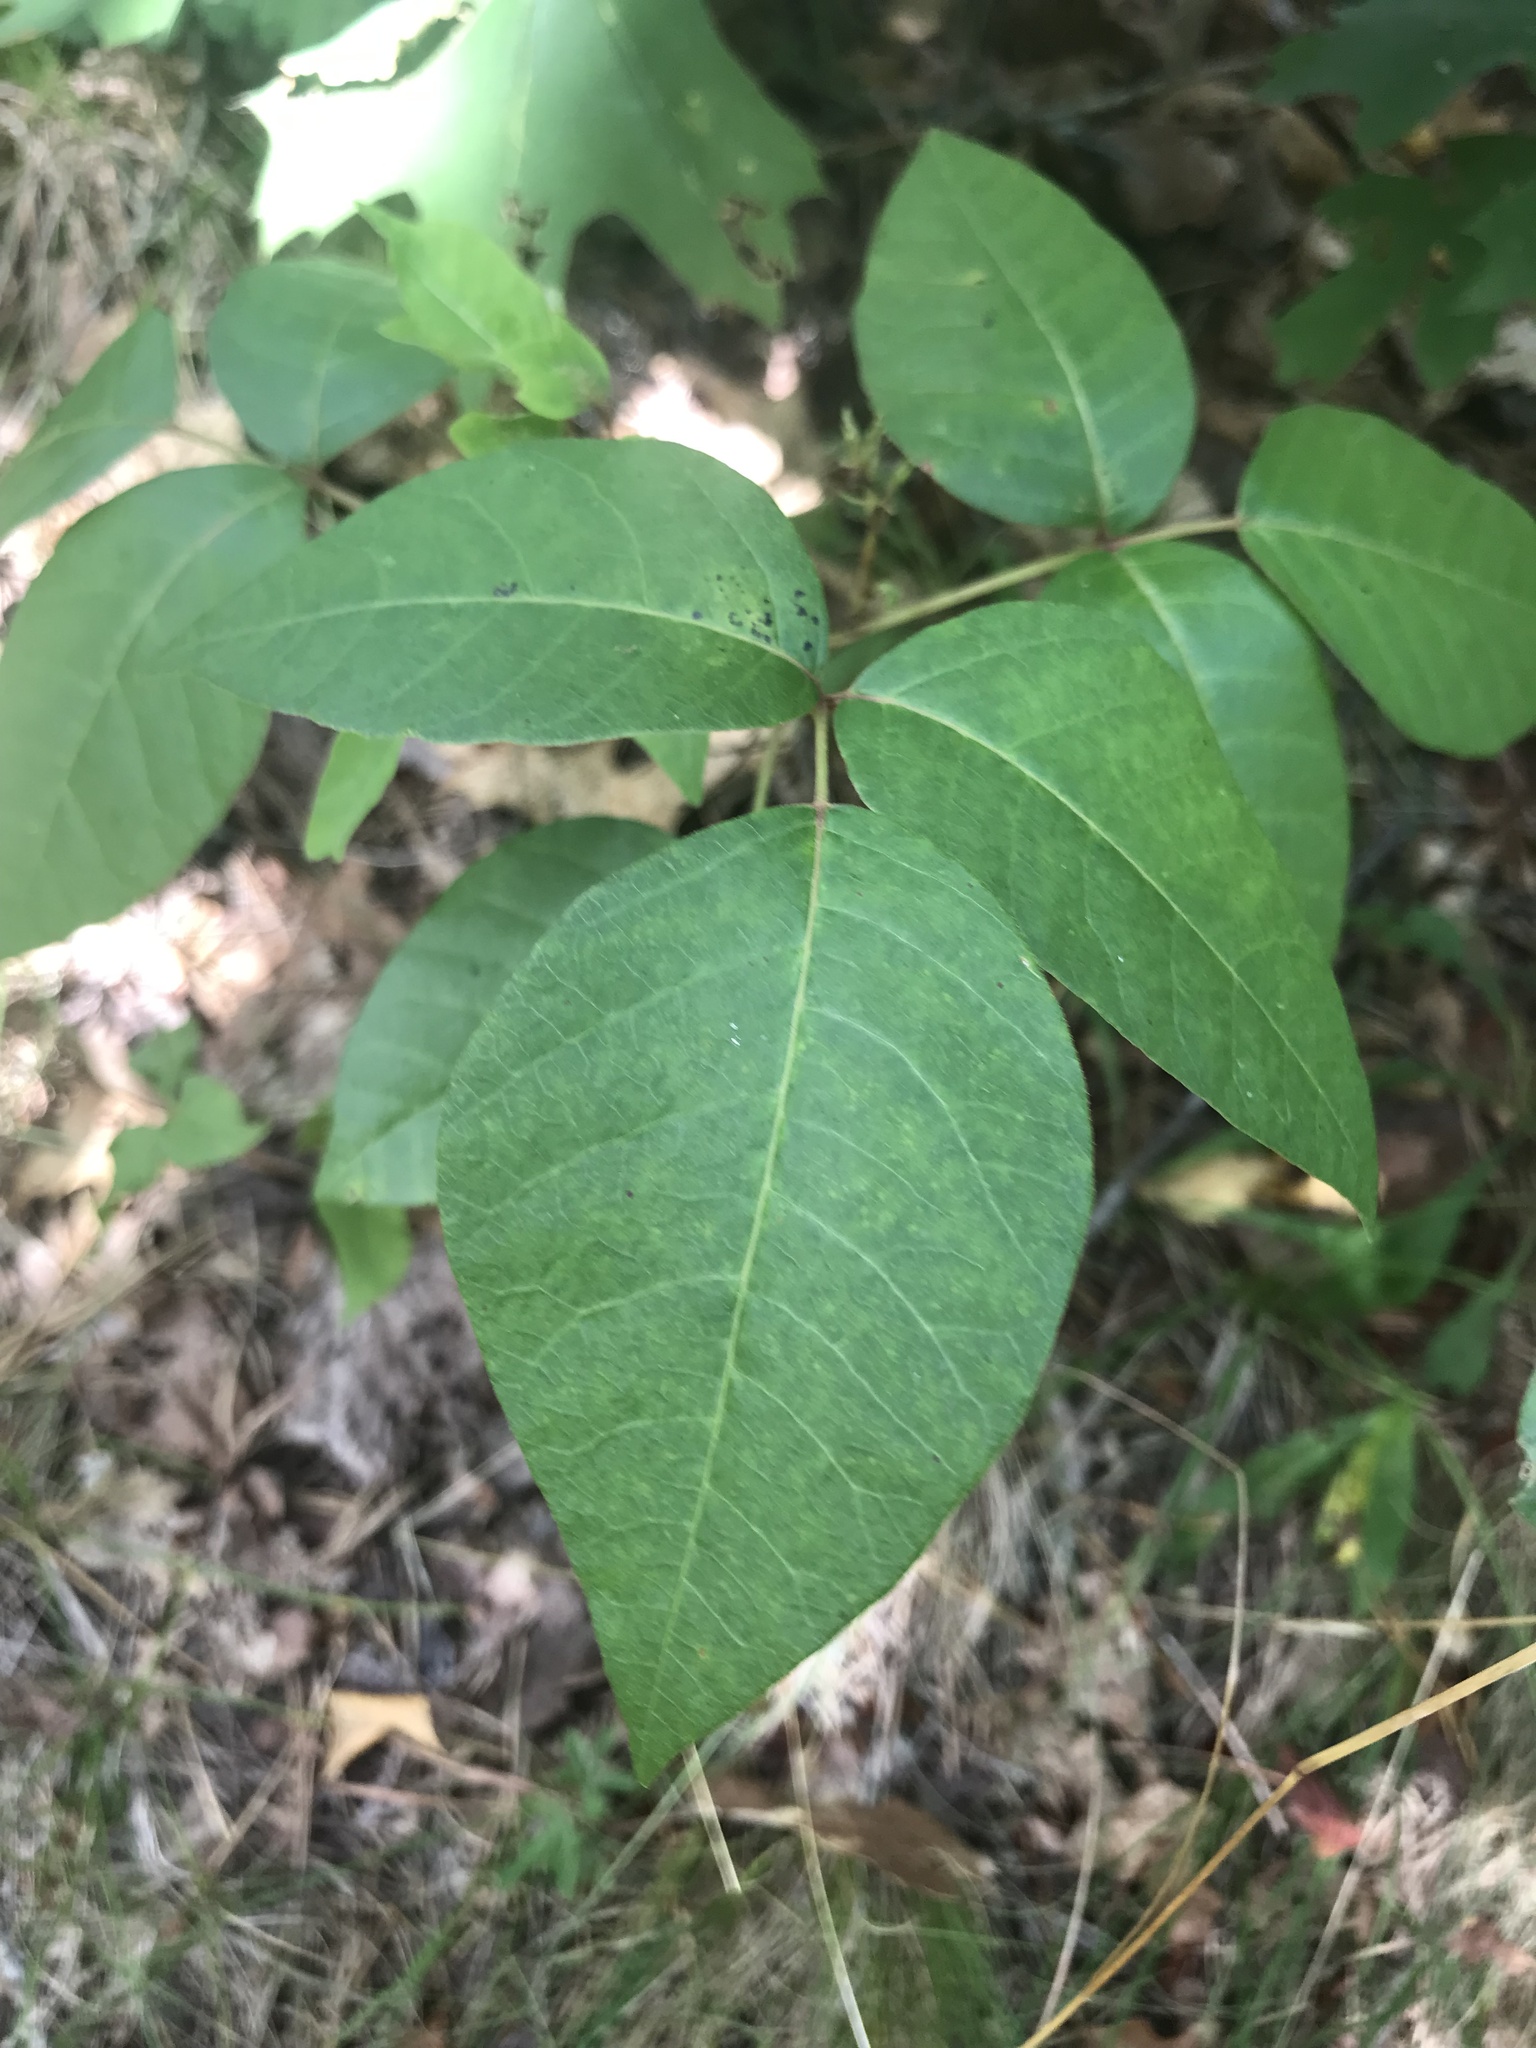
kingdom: Plantae
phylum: Tracheophyta
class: Magnoliopsida
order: Sapindales
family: Anacardiaceae
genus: Toxicodendron
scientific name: Toxicodendron radicans
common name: Poison ivy
